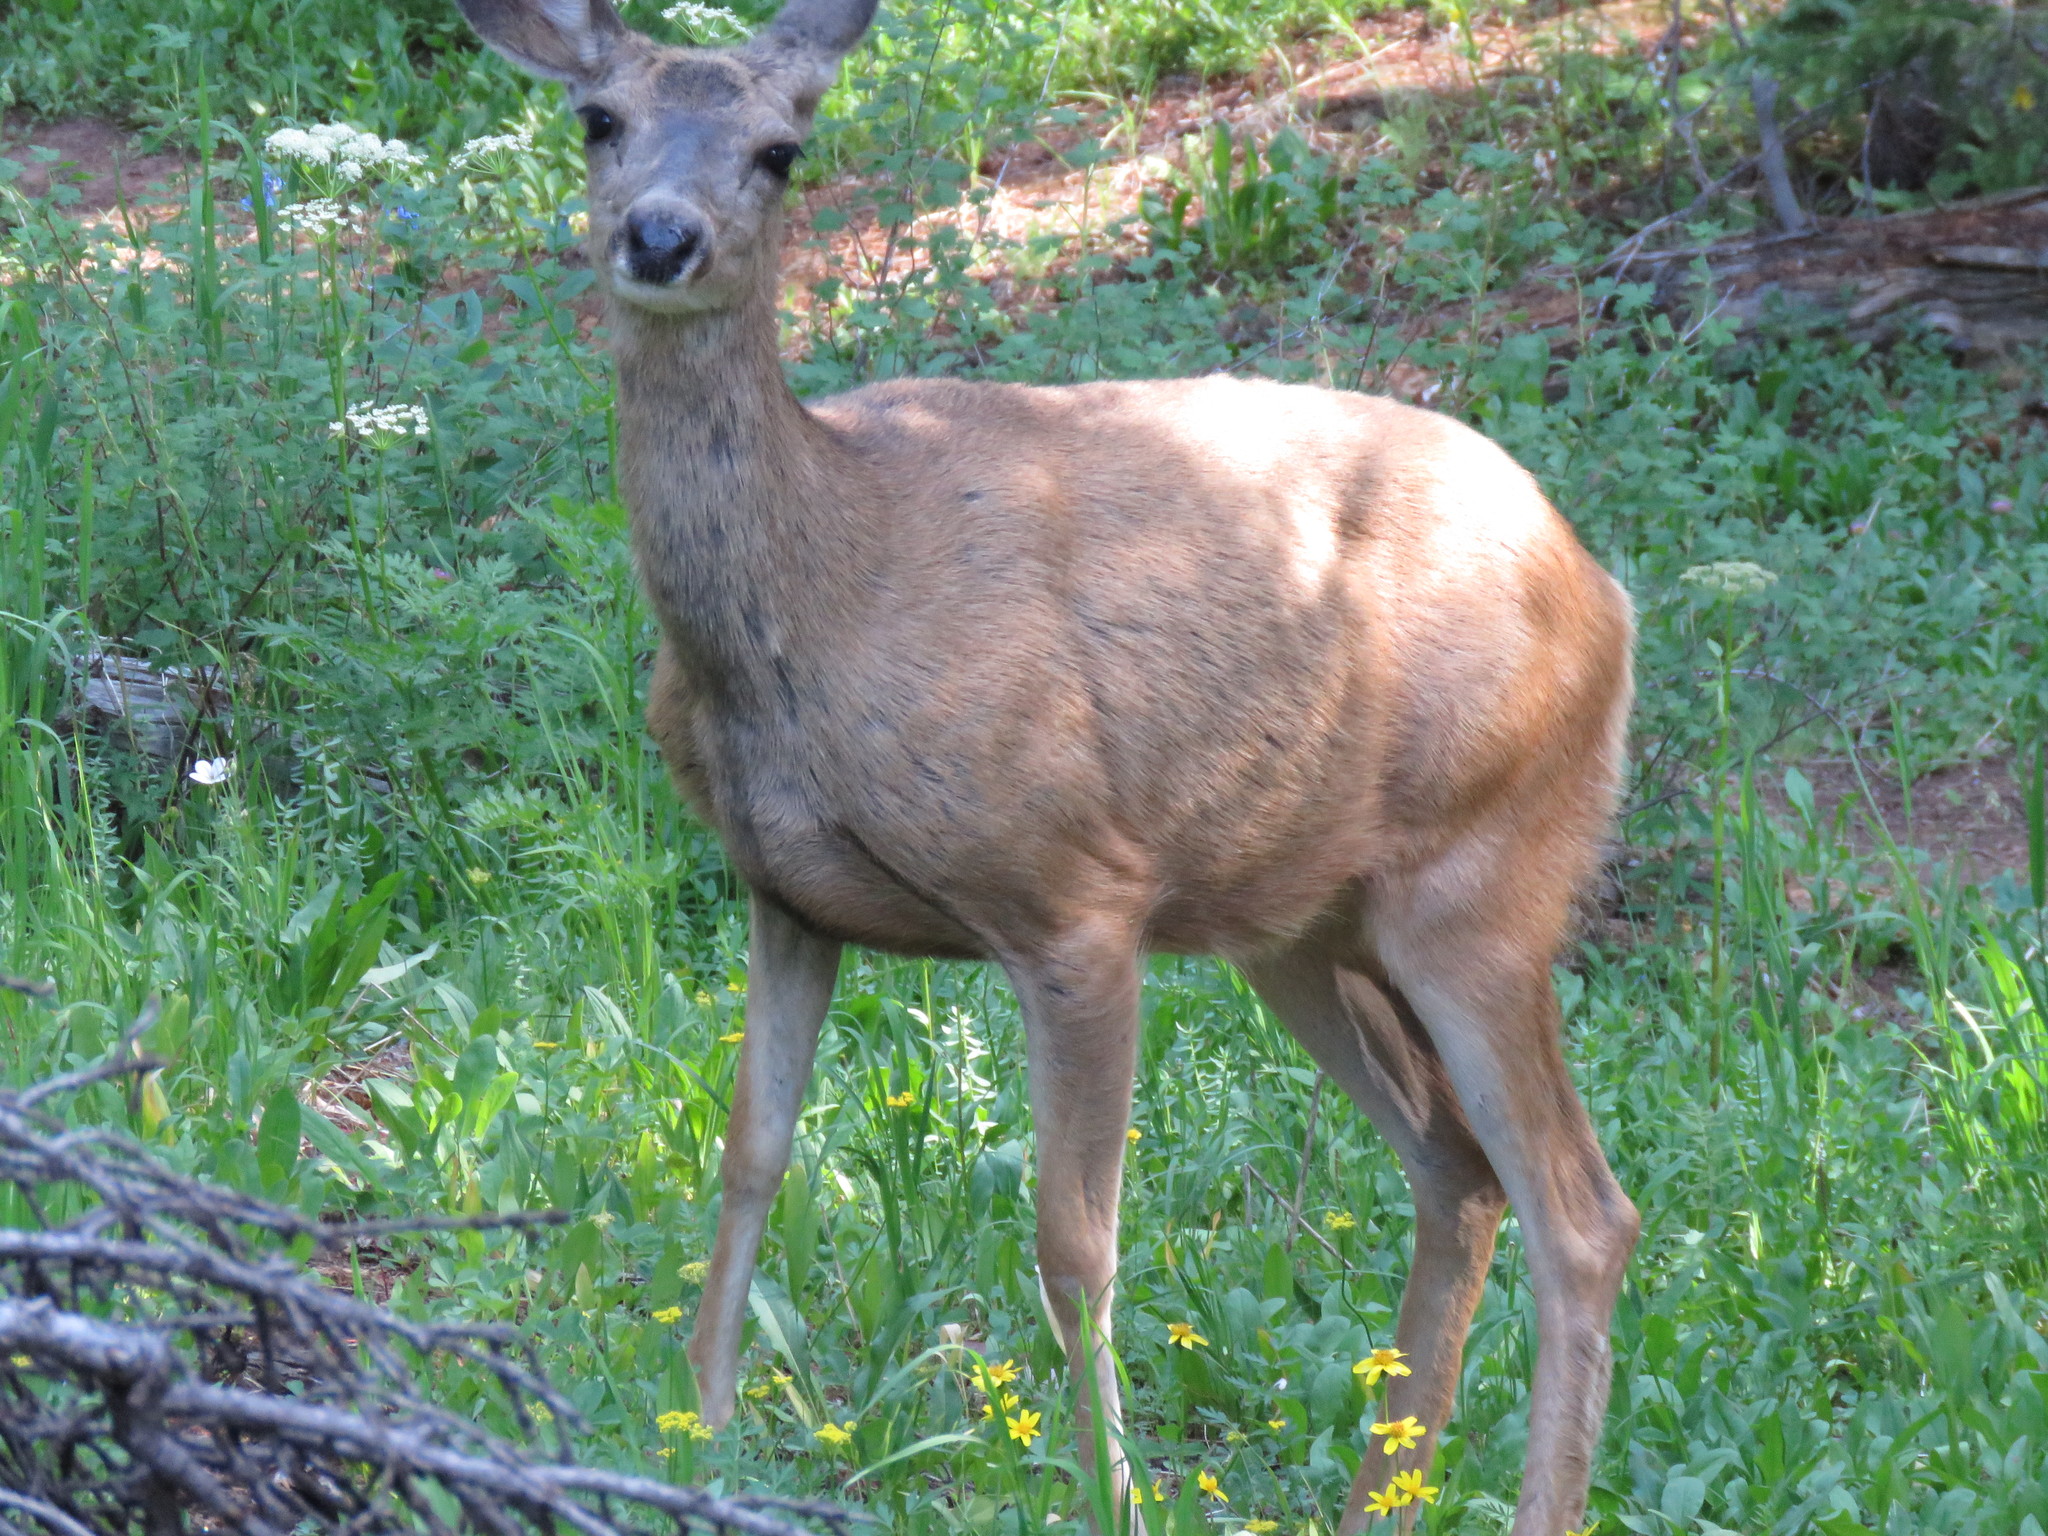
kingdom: Animalia
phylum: Chordata
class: Mammalia
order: Artiodactyla
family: Cervidae
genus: Odocoileus
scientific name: Odocoileus hemionus
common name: Mule deer
